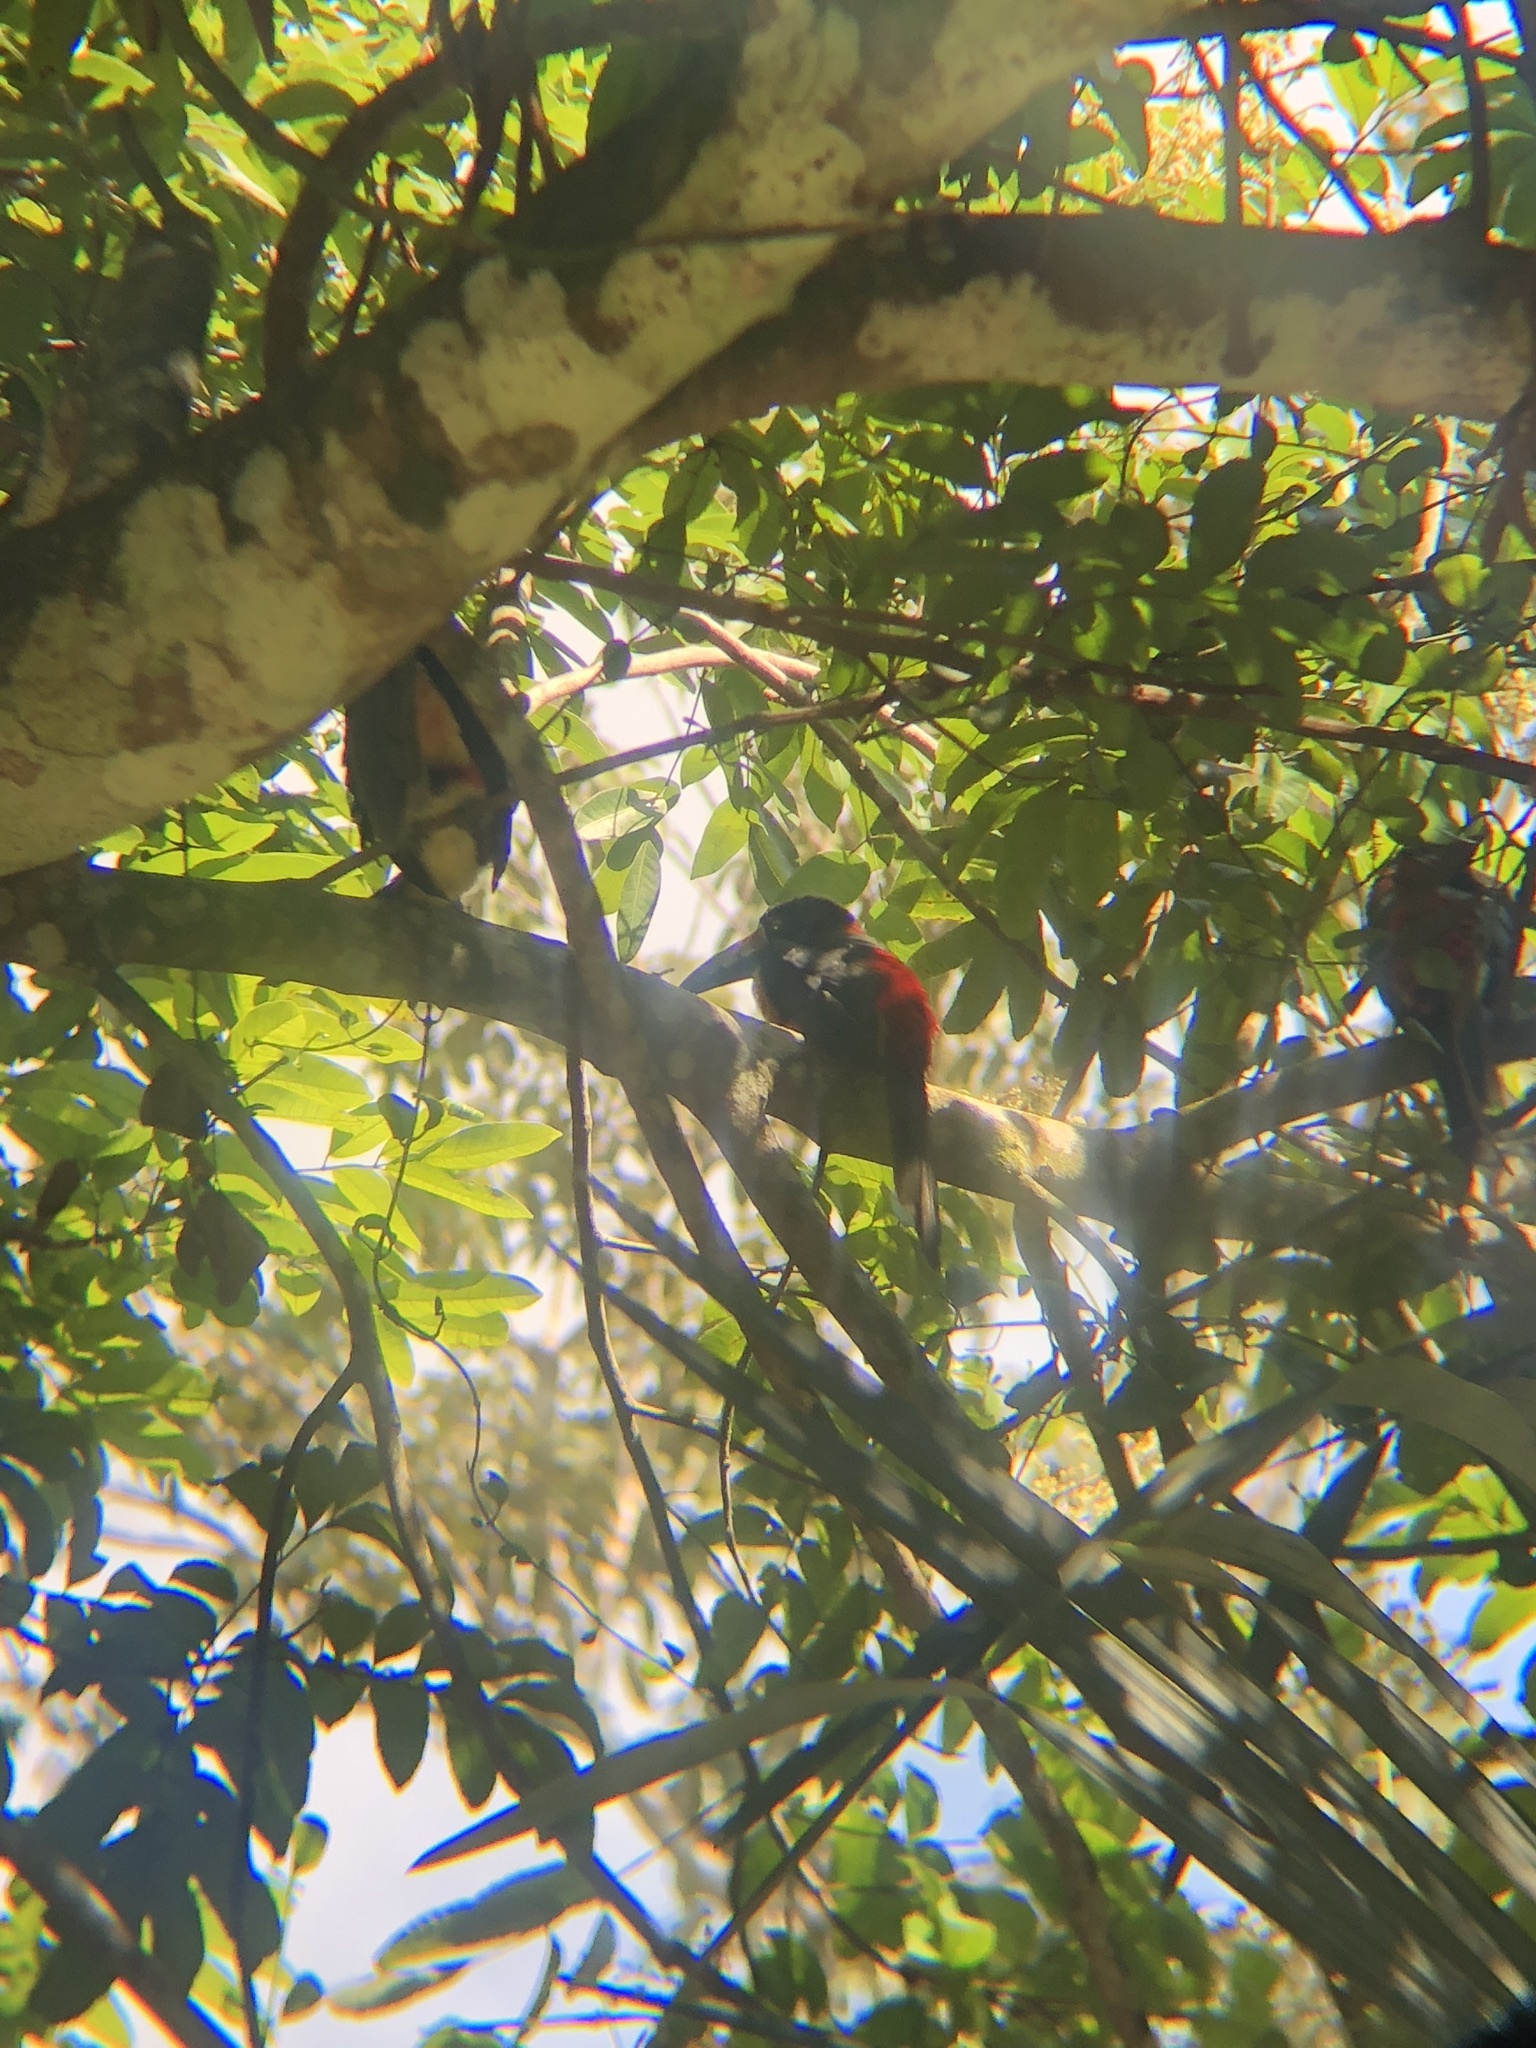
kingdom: Animalia
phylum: Chordata
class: Aves
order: Piciformes
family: Ramphastidae
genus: Pteroglossus
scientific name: Pteroglossus torquatus
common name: Collared aracari
